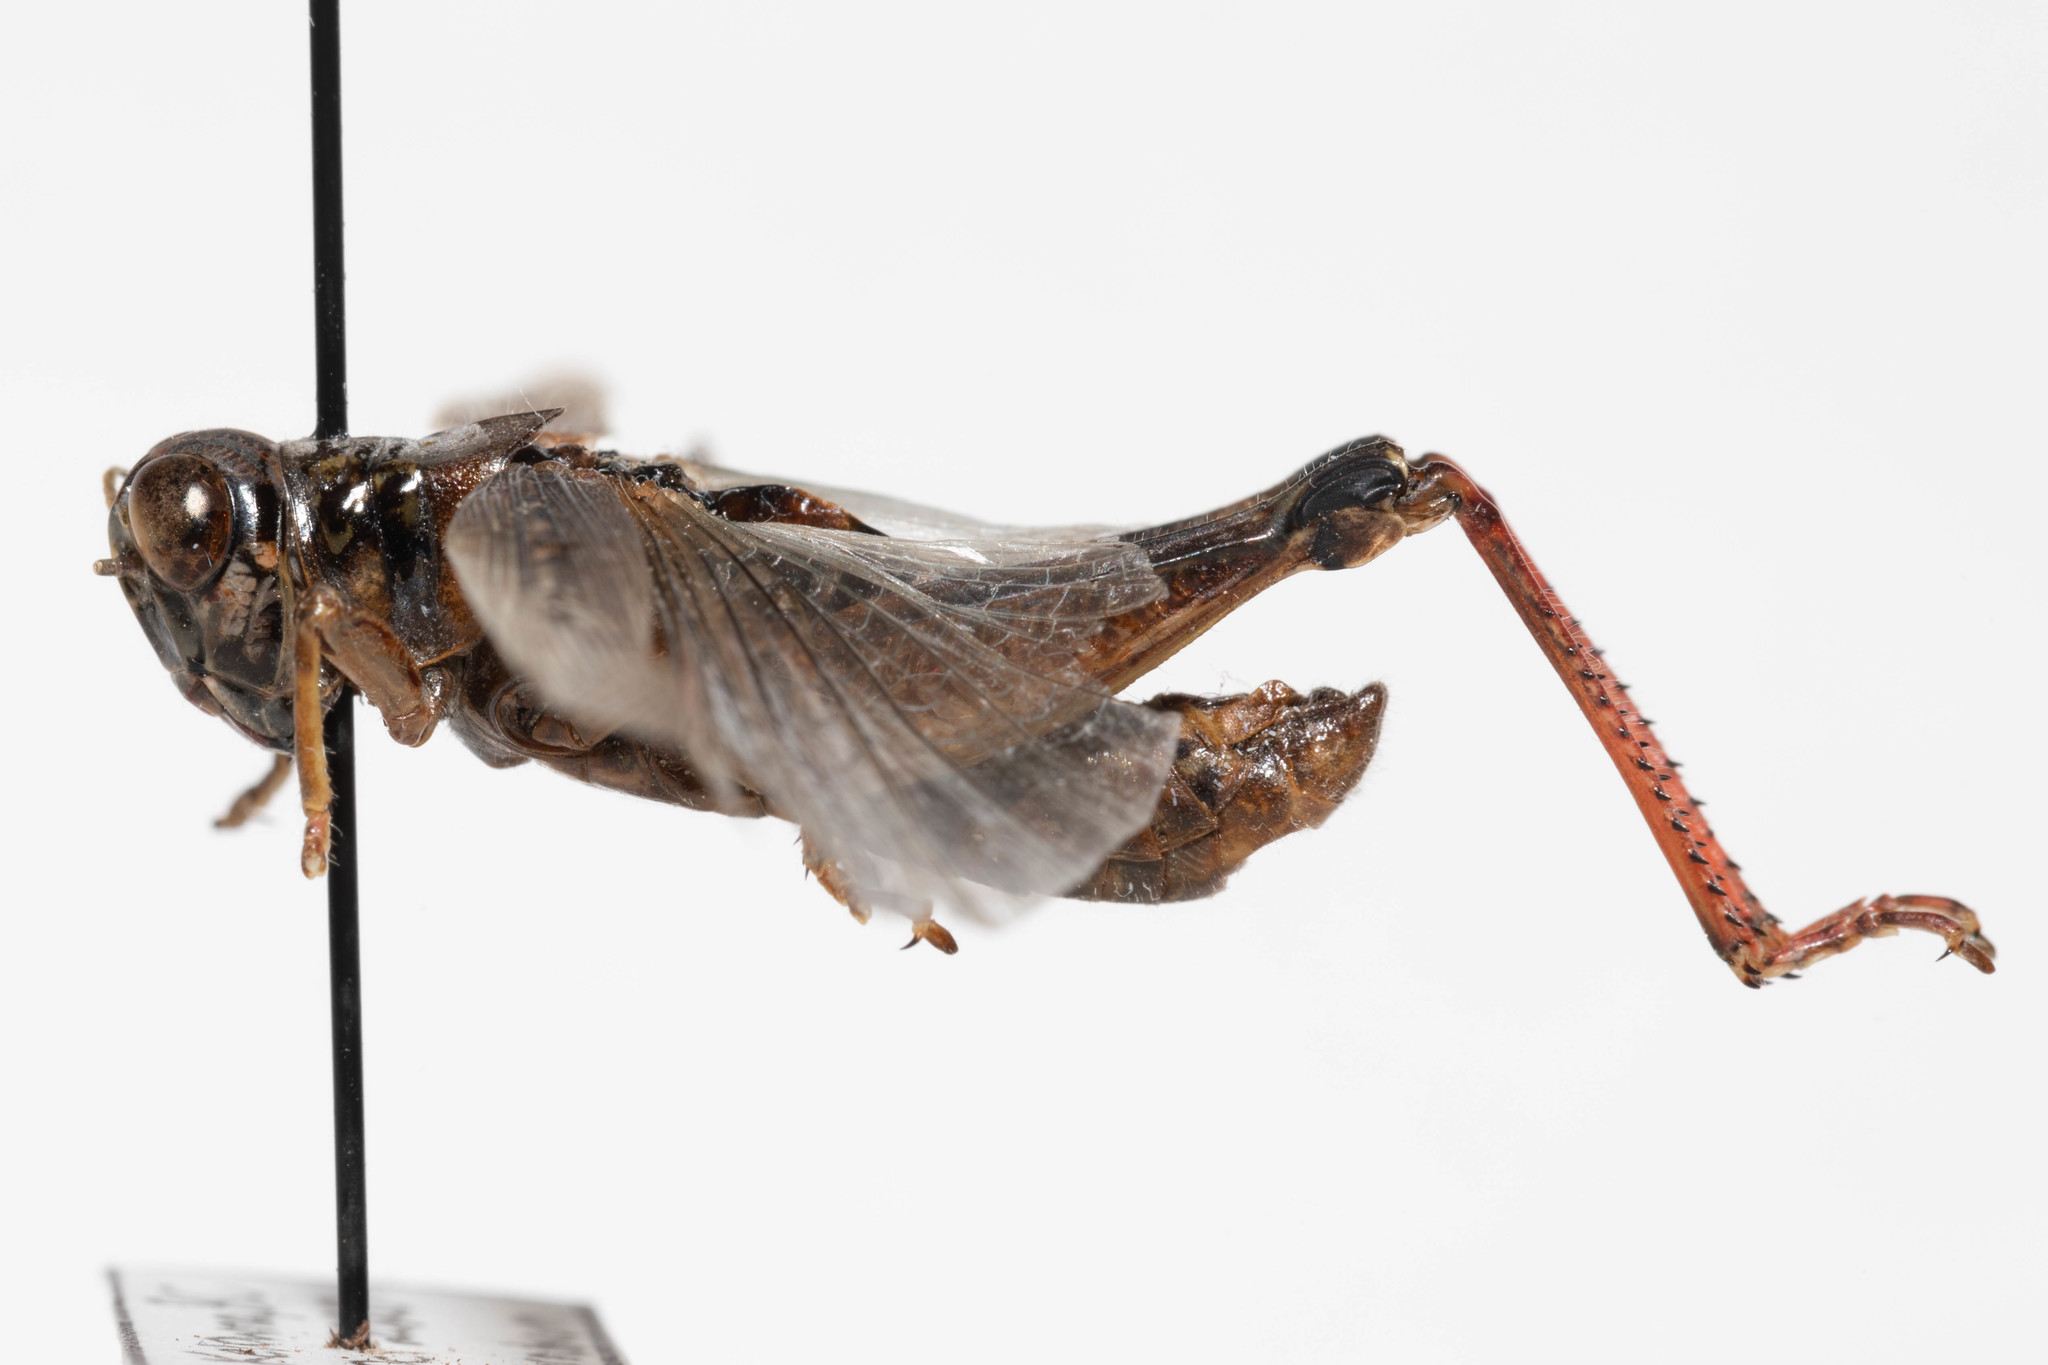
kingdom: Animalia
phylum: Arthropoda
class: Insecta
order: Orthoptera
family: Acrididae
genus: Melanoplus
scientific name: Melanoplus sanguinipes
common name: Migratory grasshopper
